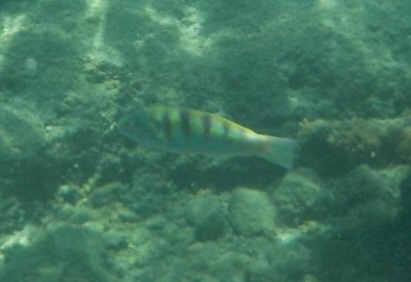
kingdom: Animalia
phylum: Chordata
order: Perciformes
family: Labridae
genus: Thalassoma
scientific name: Thalassoma hardwicke
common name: Sixbar wrasse
